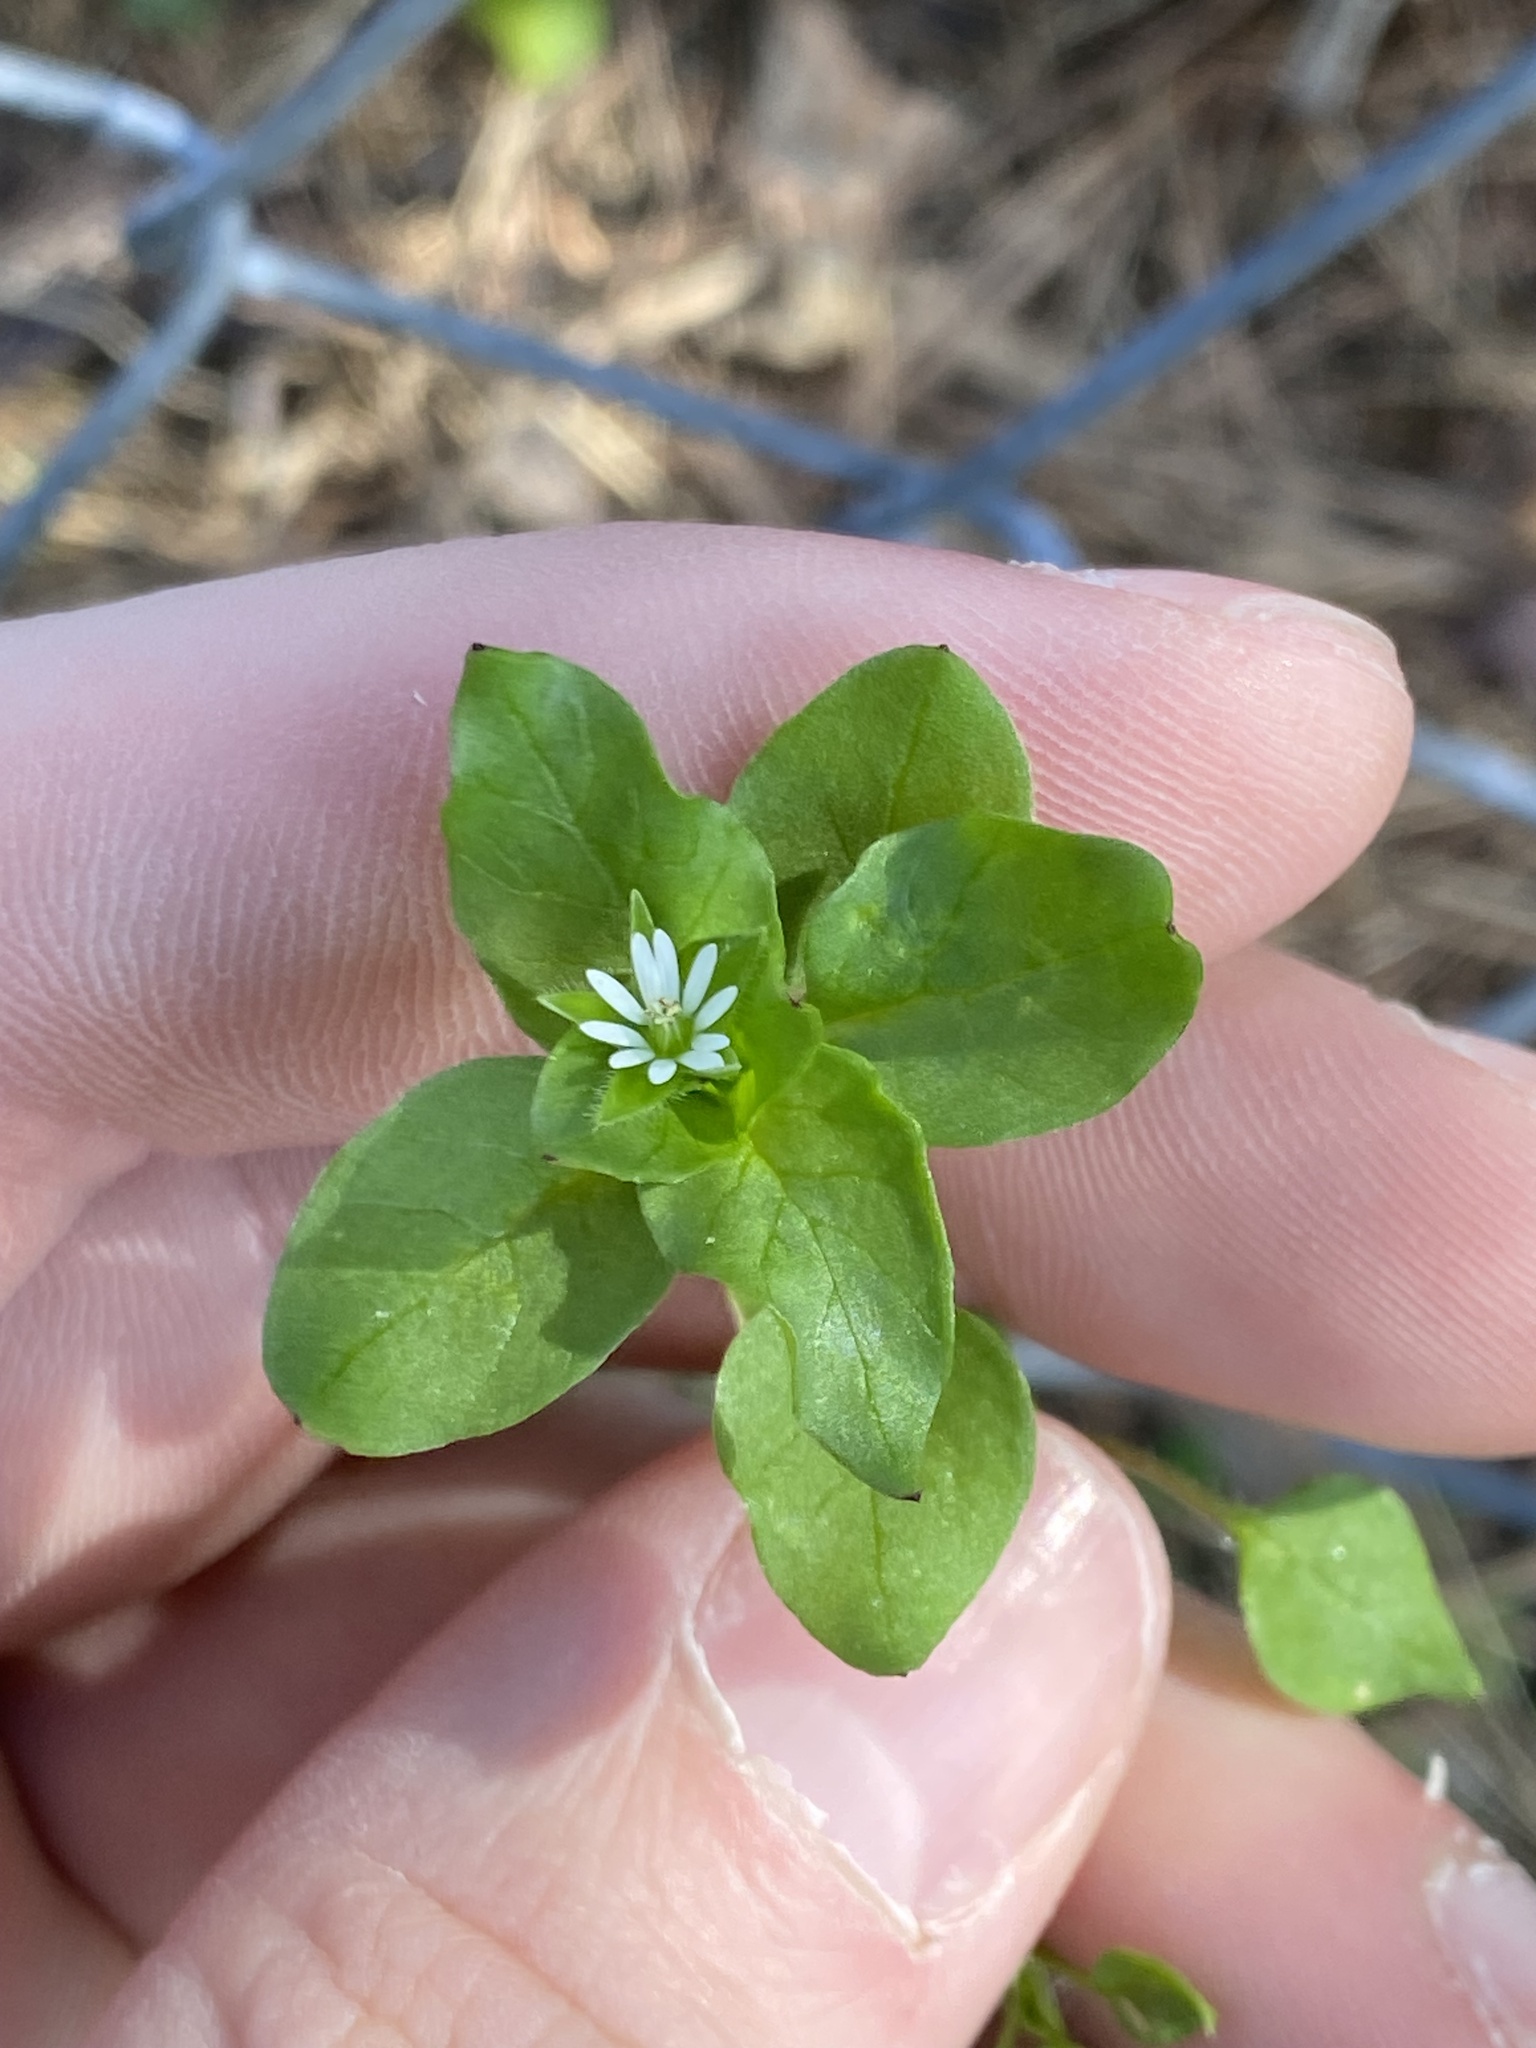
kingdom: Plantae
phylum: Tracheophyta
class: Magnoliopsida
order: Caryophyllales
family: Caryophyllaceae
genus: Stellaria
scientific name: Stellaria media
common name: Common chickweed
